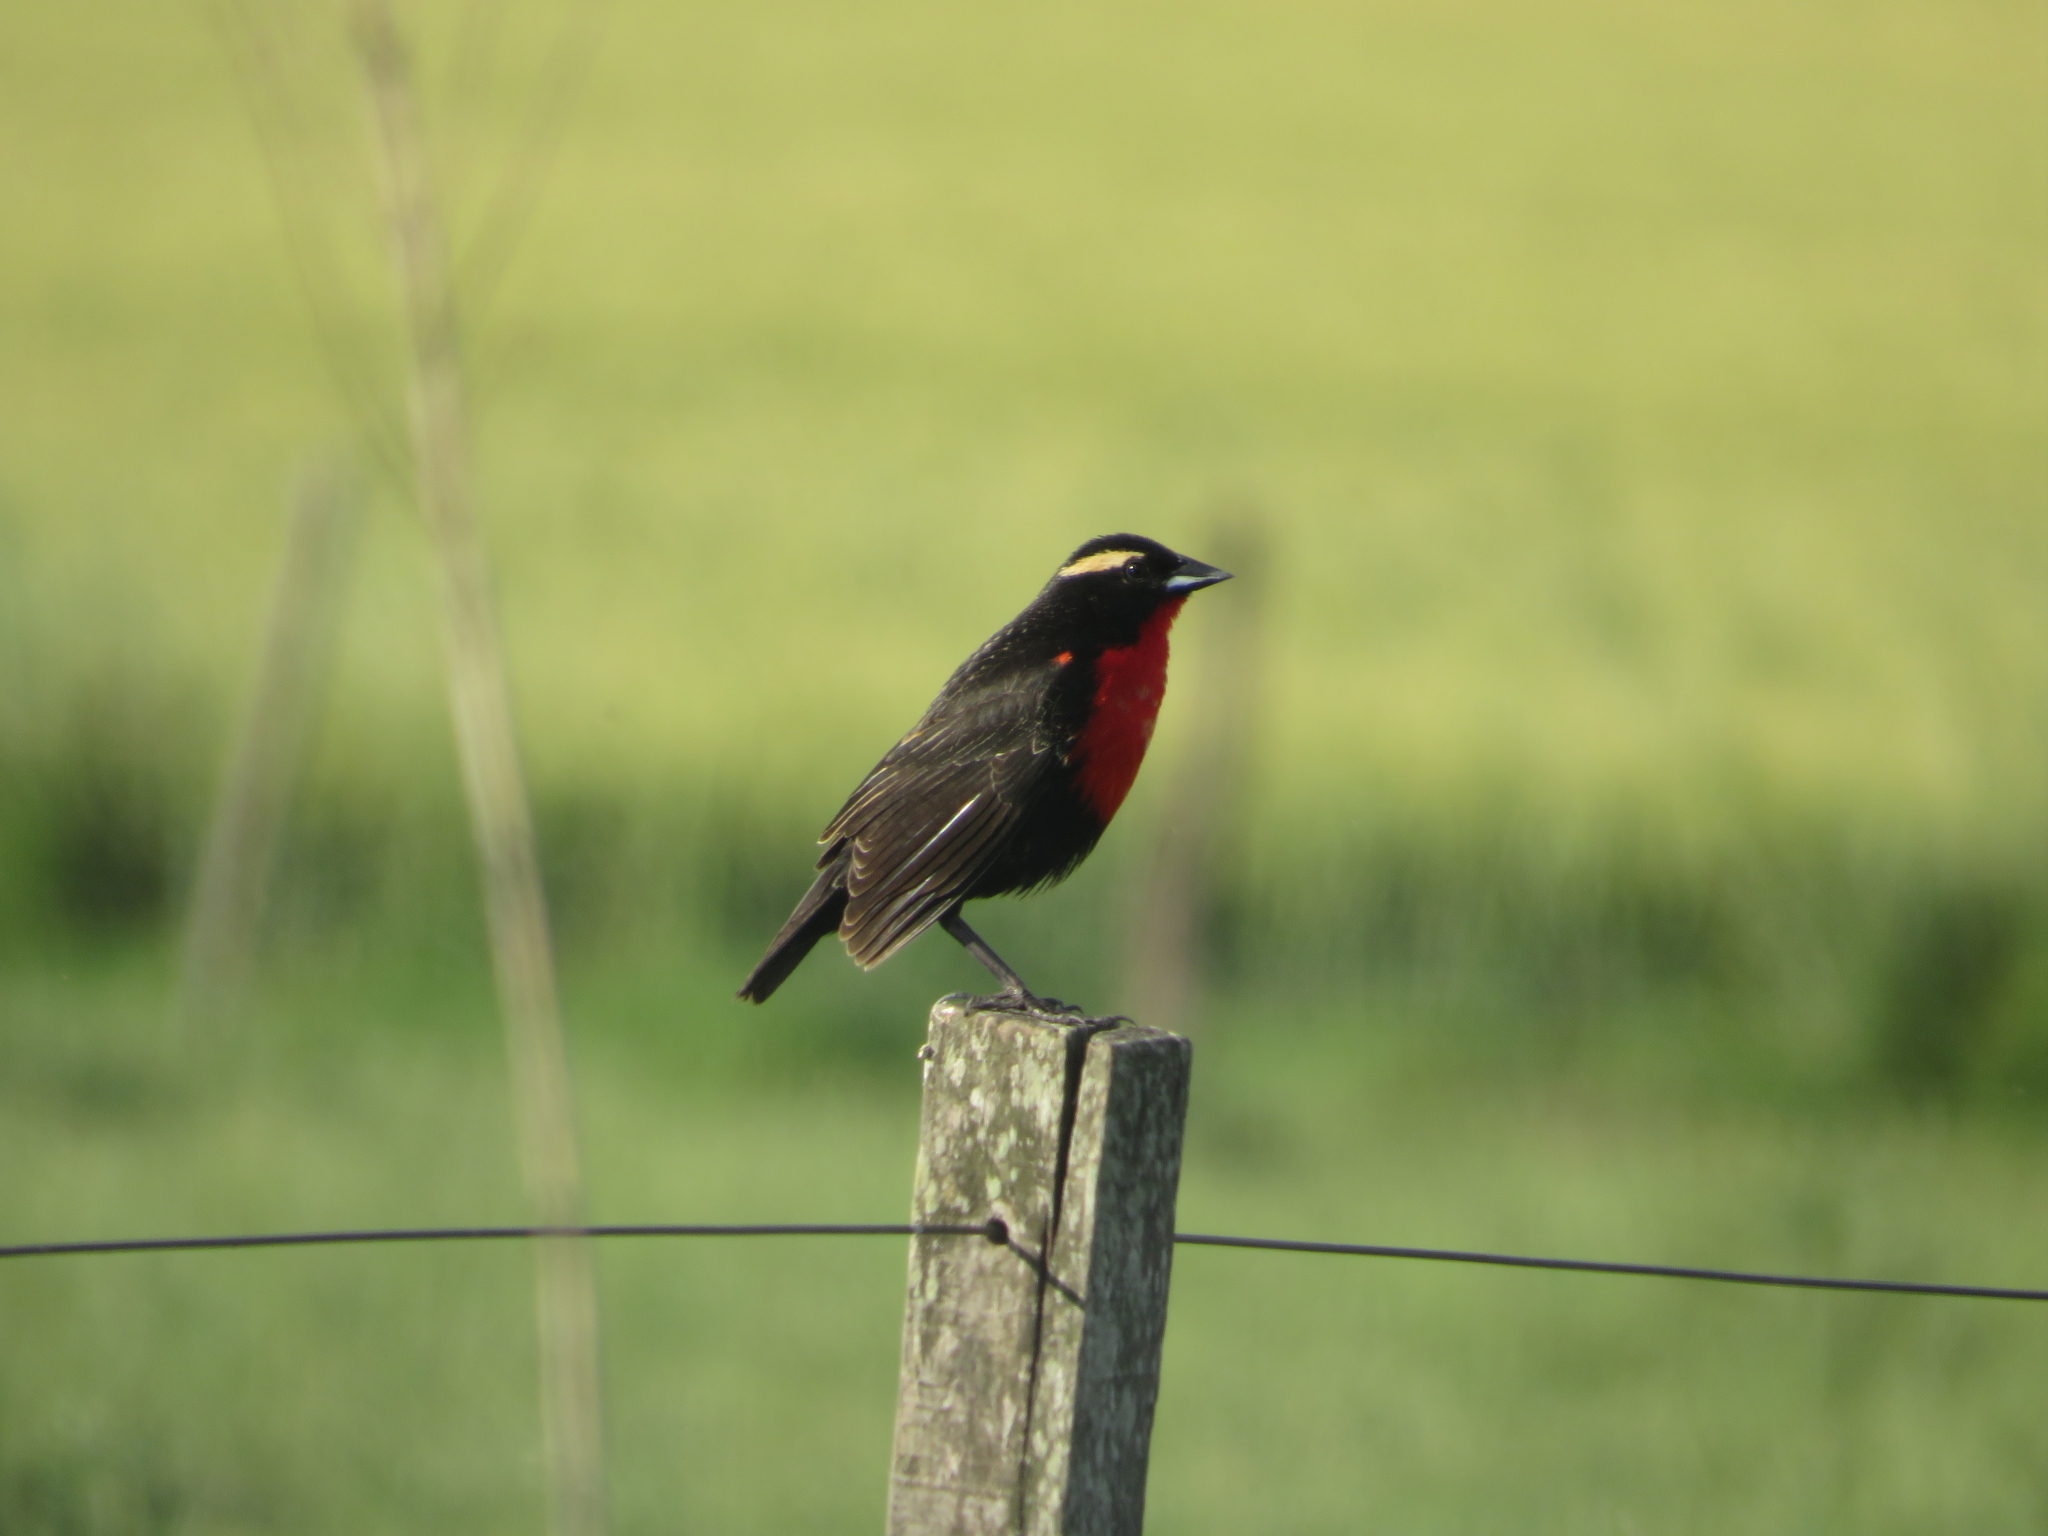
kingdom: Animalia
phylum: Chordata
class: Aves
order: Passeriformes
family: Icteridae
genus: Sturnella
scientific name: Sturnella superciliaris
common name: White-browed blackbird
